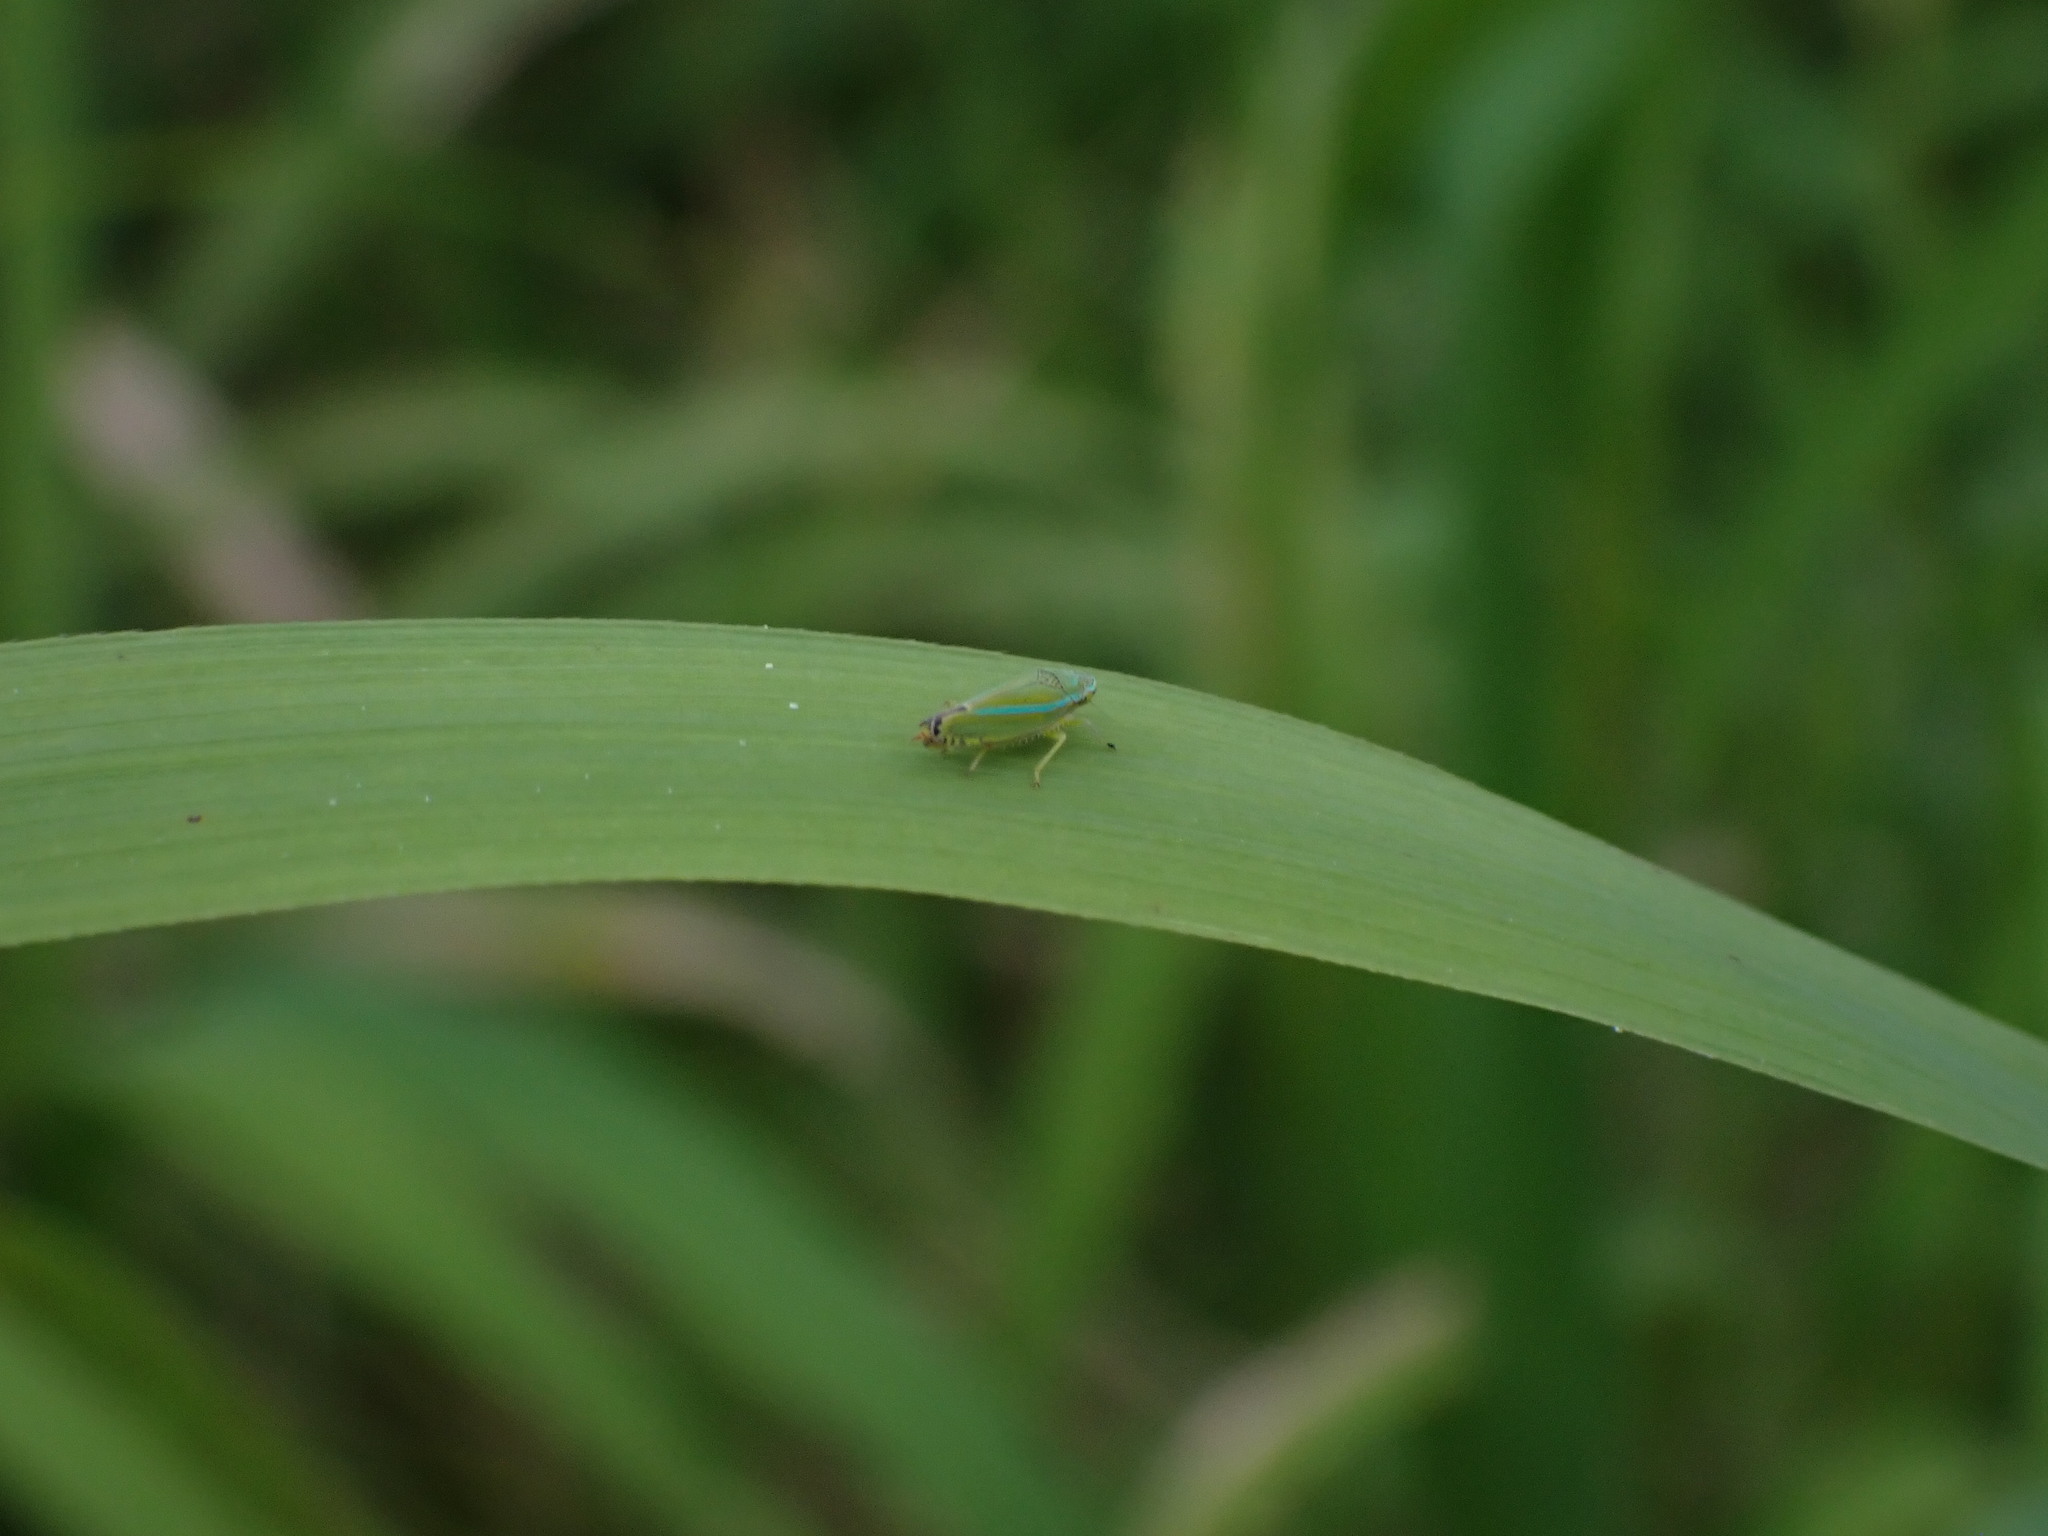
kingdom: Animalia
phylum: Arthropoda
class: Insecta
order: Hemiptera
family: Cicadellidae
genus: Graphocephala
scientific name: Graphocephala versuta
